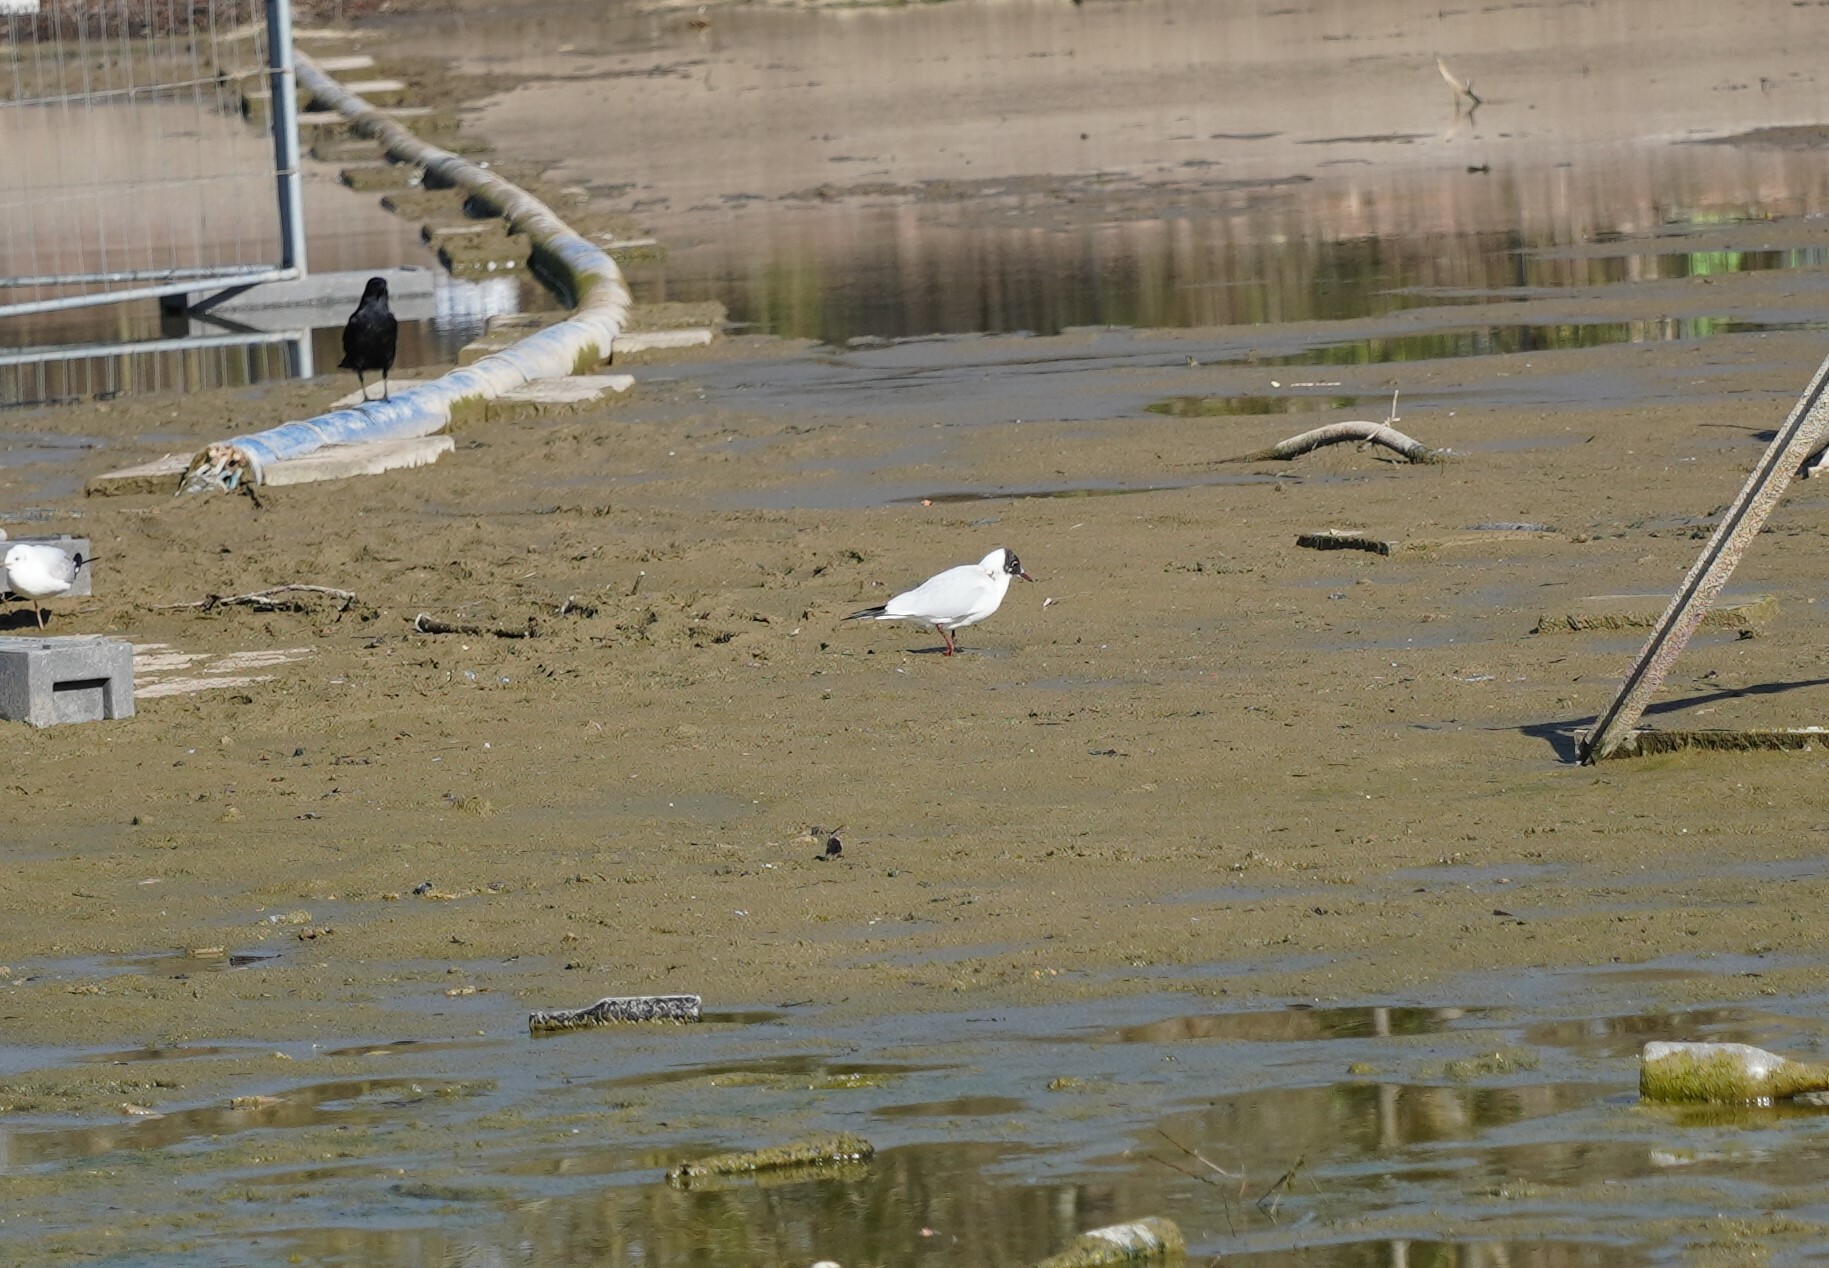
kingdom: Animalia
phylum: Chordata
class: Aves
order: Charadriiformes
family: Laridae
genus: Chroicocephalus
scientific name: Chroicocephalus ridibundus
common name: Black-headed gull
